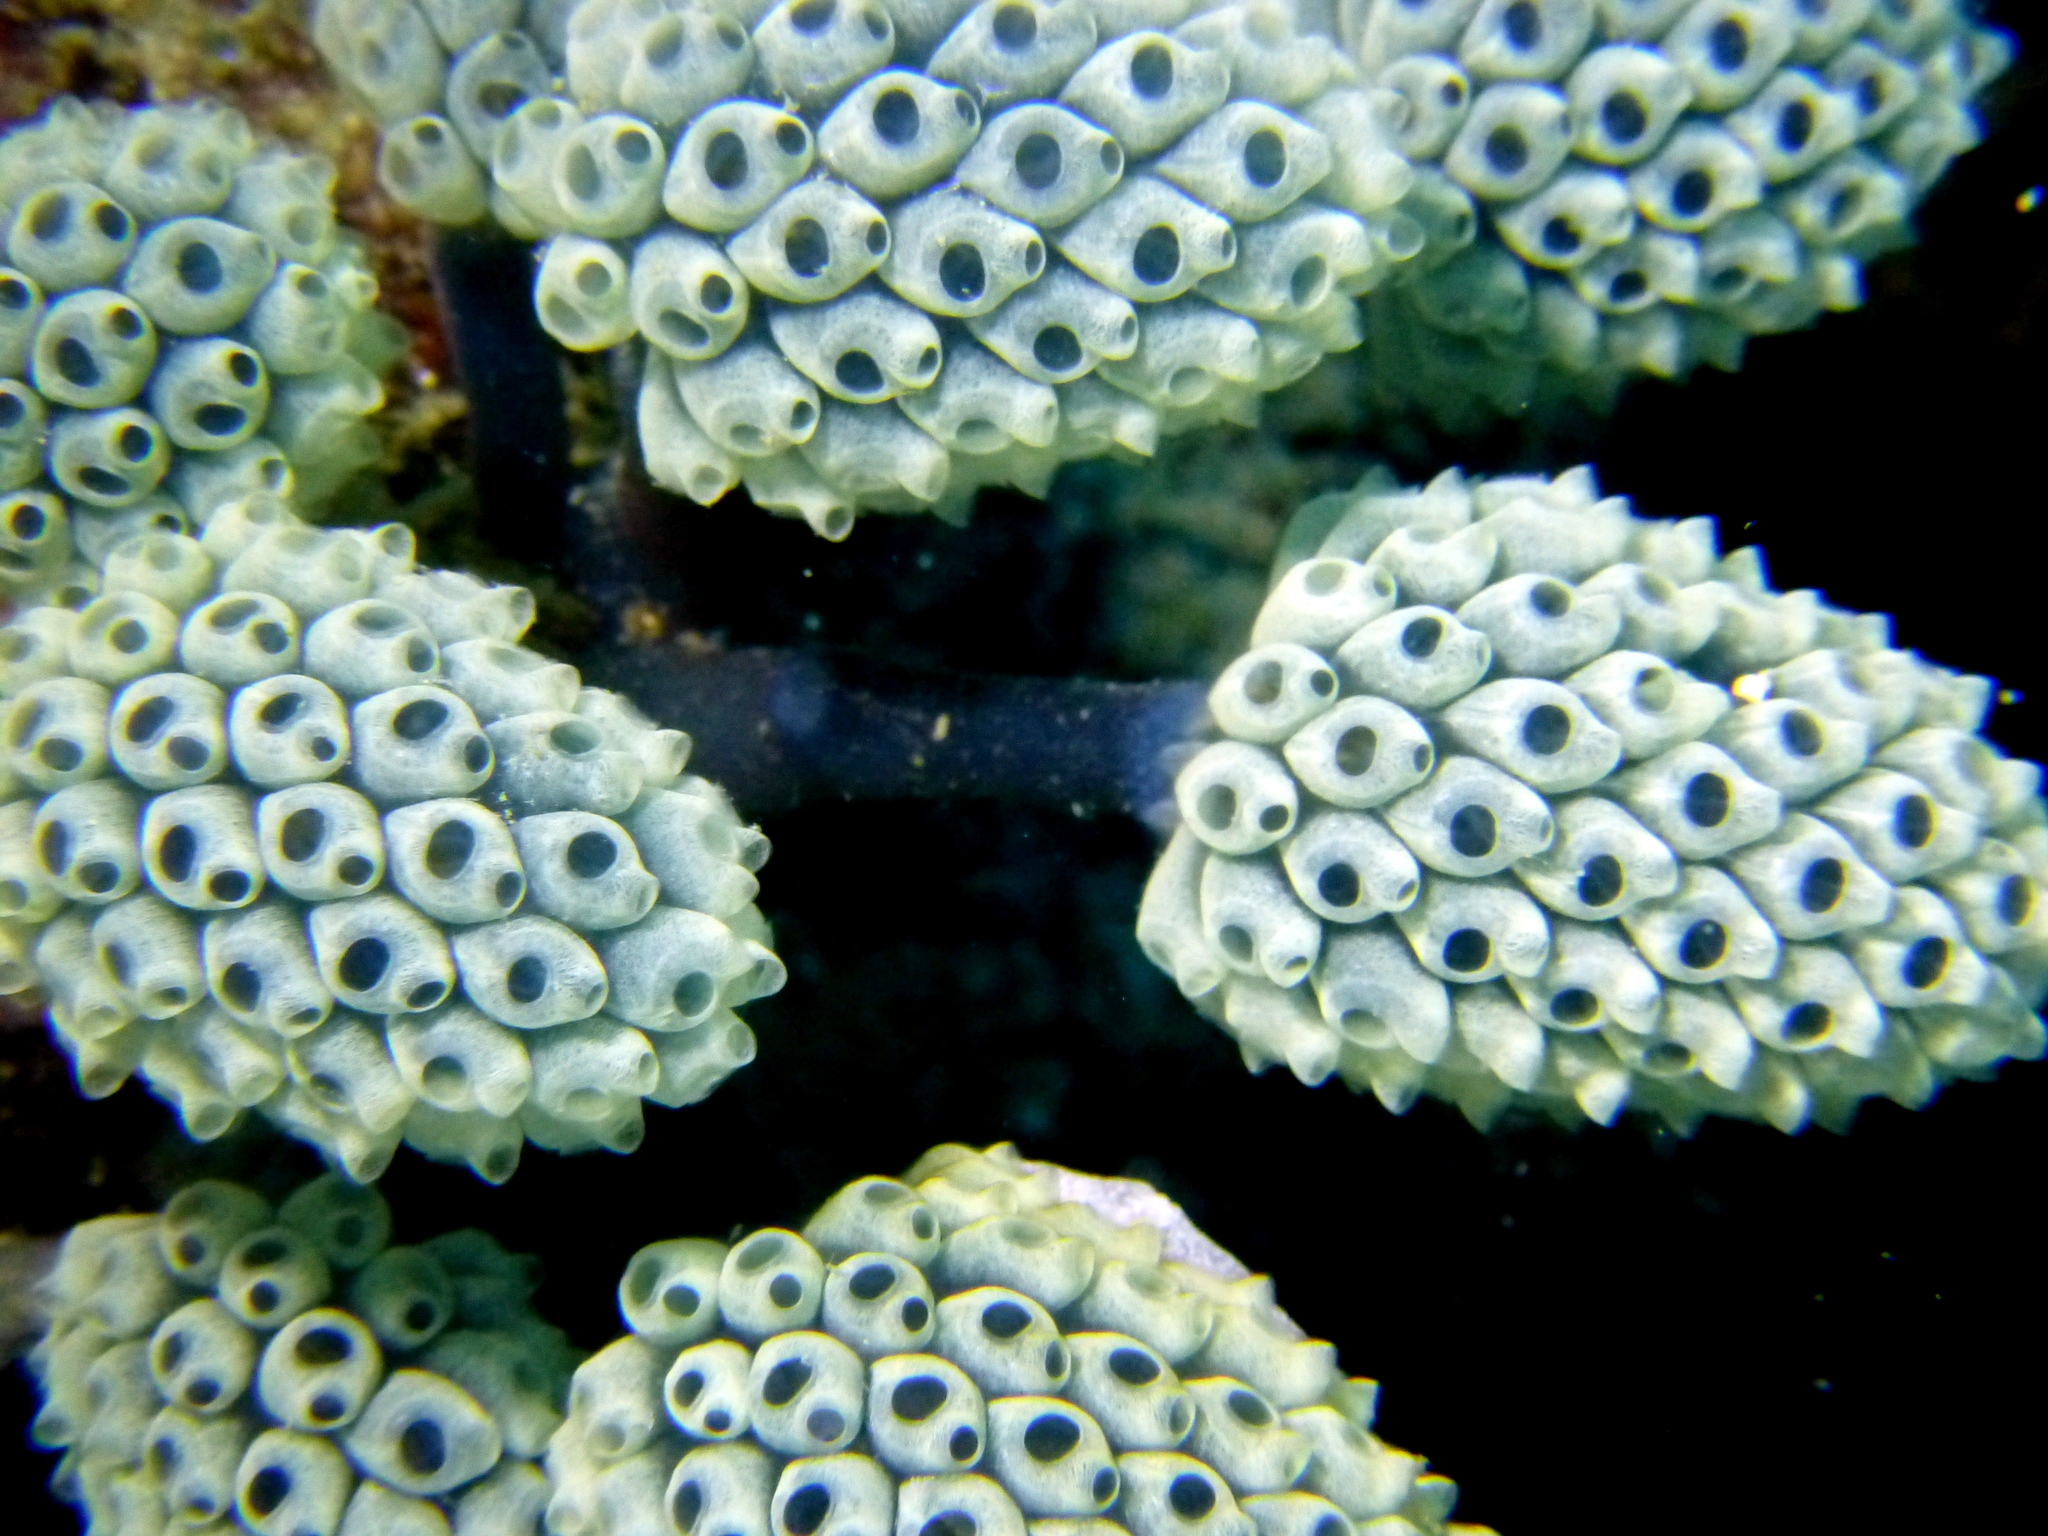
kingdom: Animalia
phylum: Chordata
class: Ascidiacea
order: Aplousobranchia
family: Clavelinidae
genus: Nephtheis
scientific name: Nephtheis fascicularis
